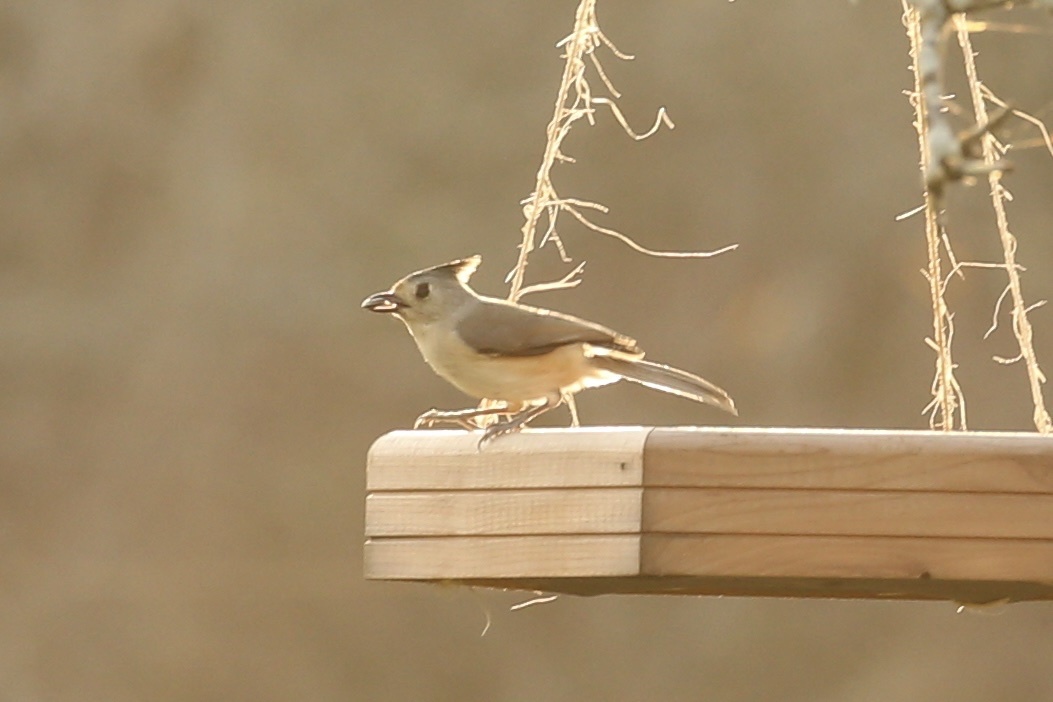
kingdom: Animalia
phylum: Chordata
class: Aves
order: Passeriformes
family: Paridae
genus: Baeolophus
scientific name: Baeolophus atricristatus
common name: Black-crested titmouse
